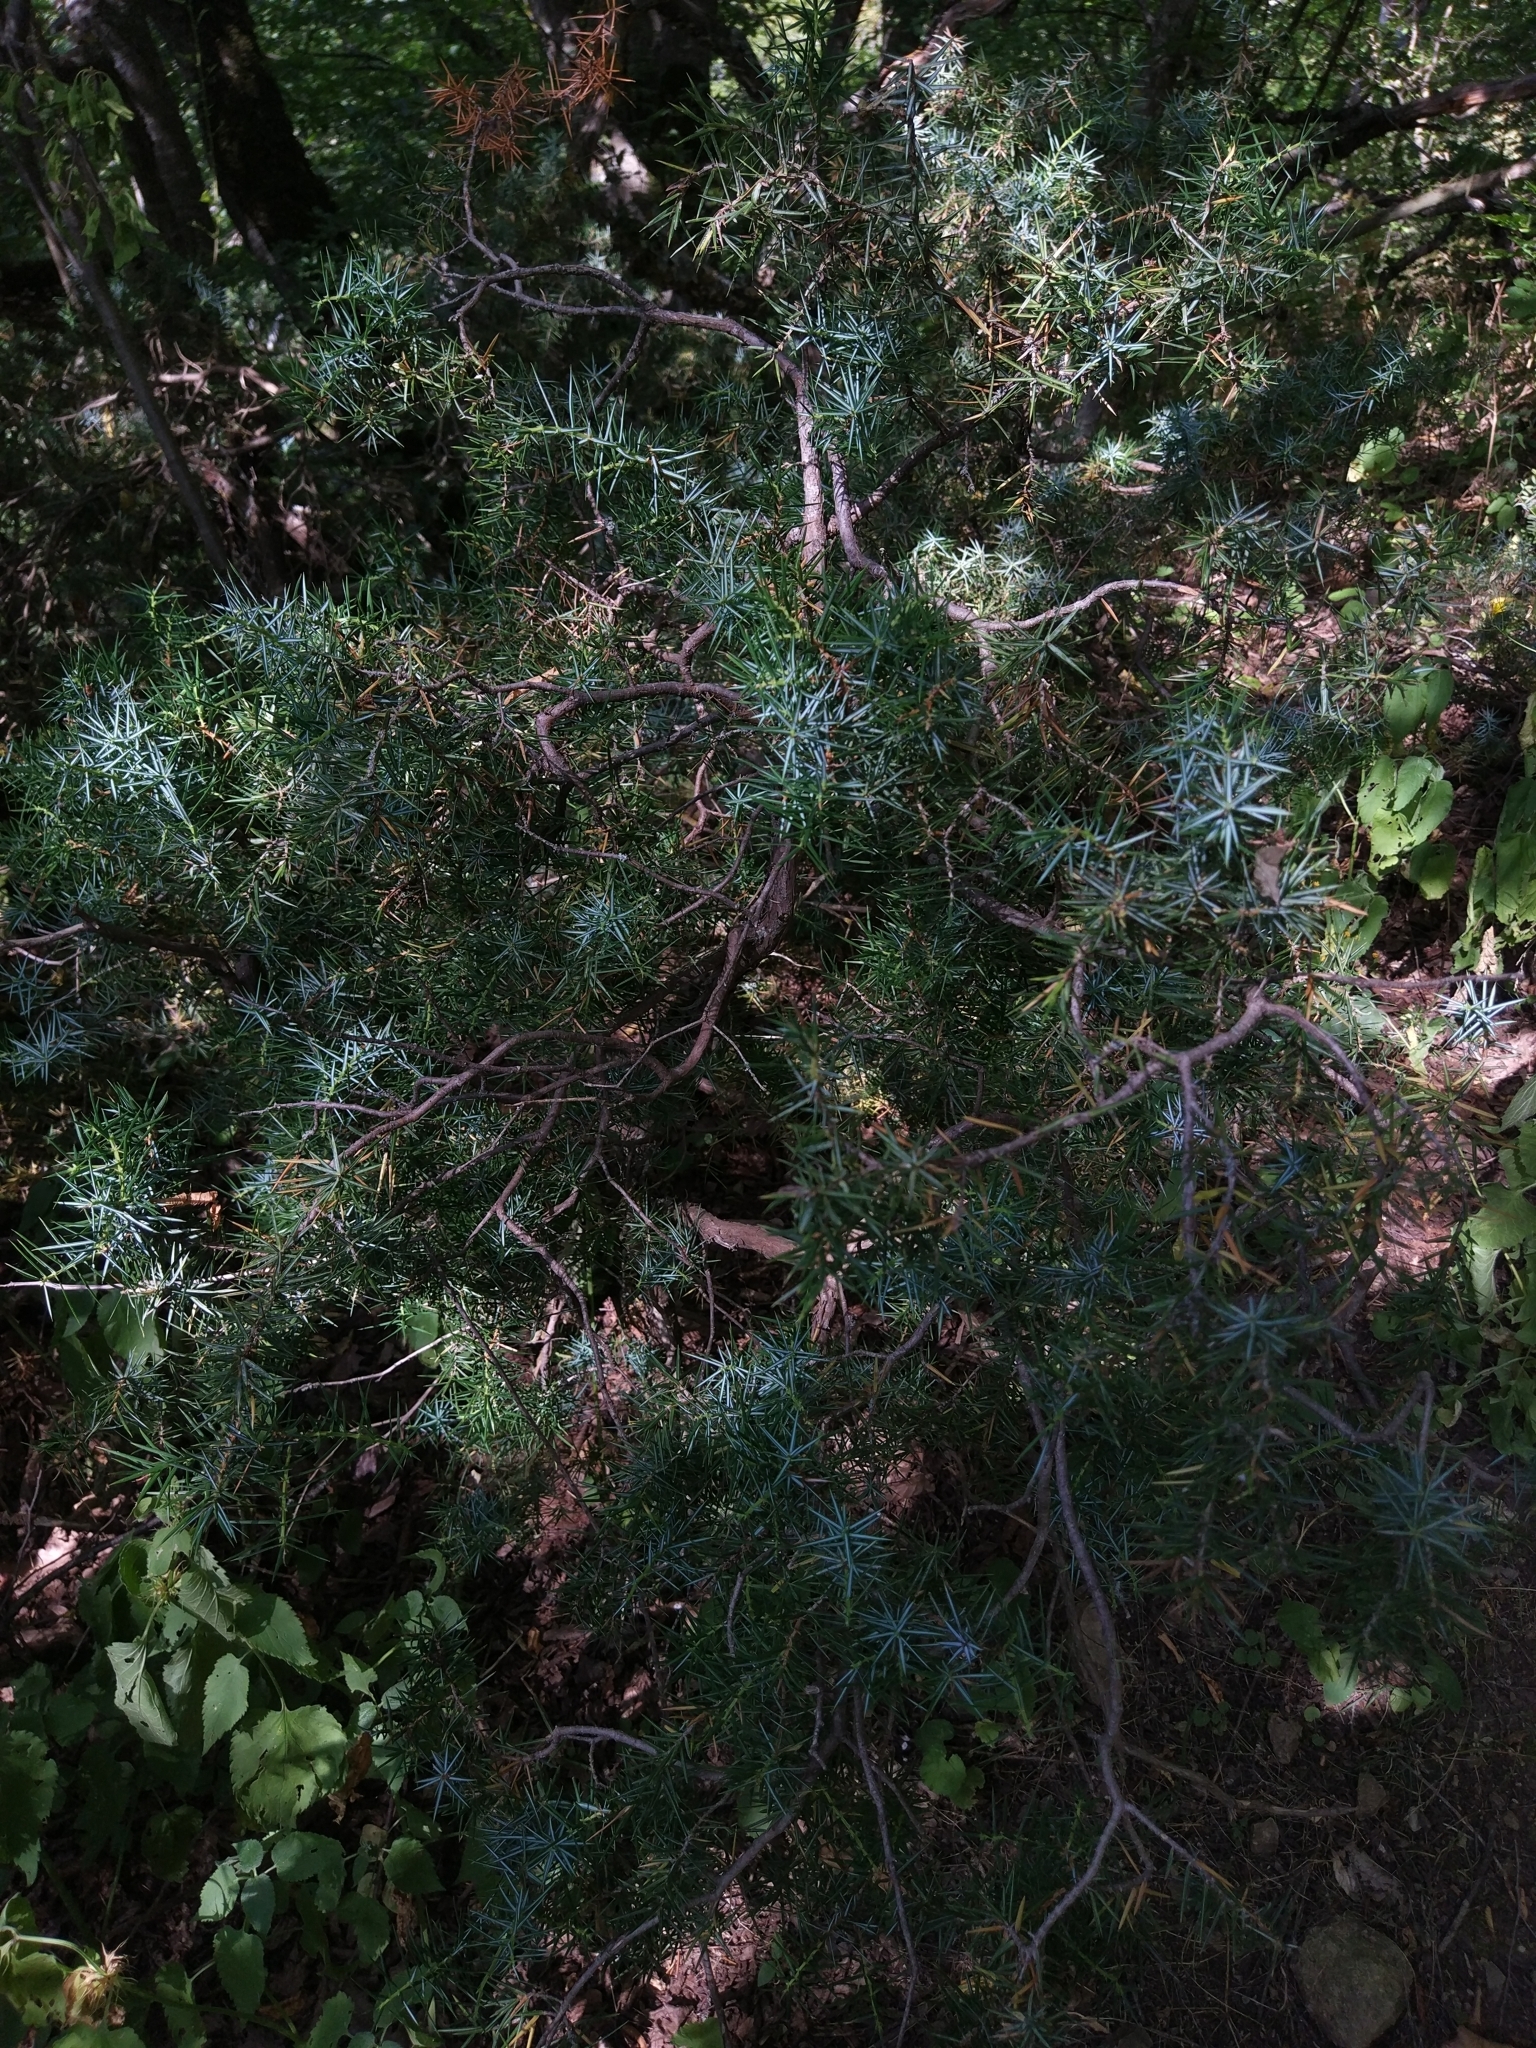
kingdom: Plantae
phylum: Tracheophyta
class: Pinopsida
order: Pinales
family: Cupressaceae
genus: Juniperus
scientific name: Juniperus communis
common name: Common juniper
